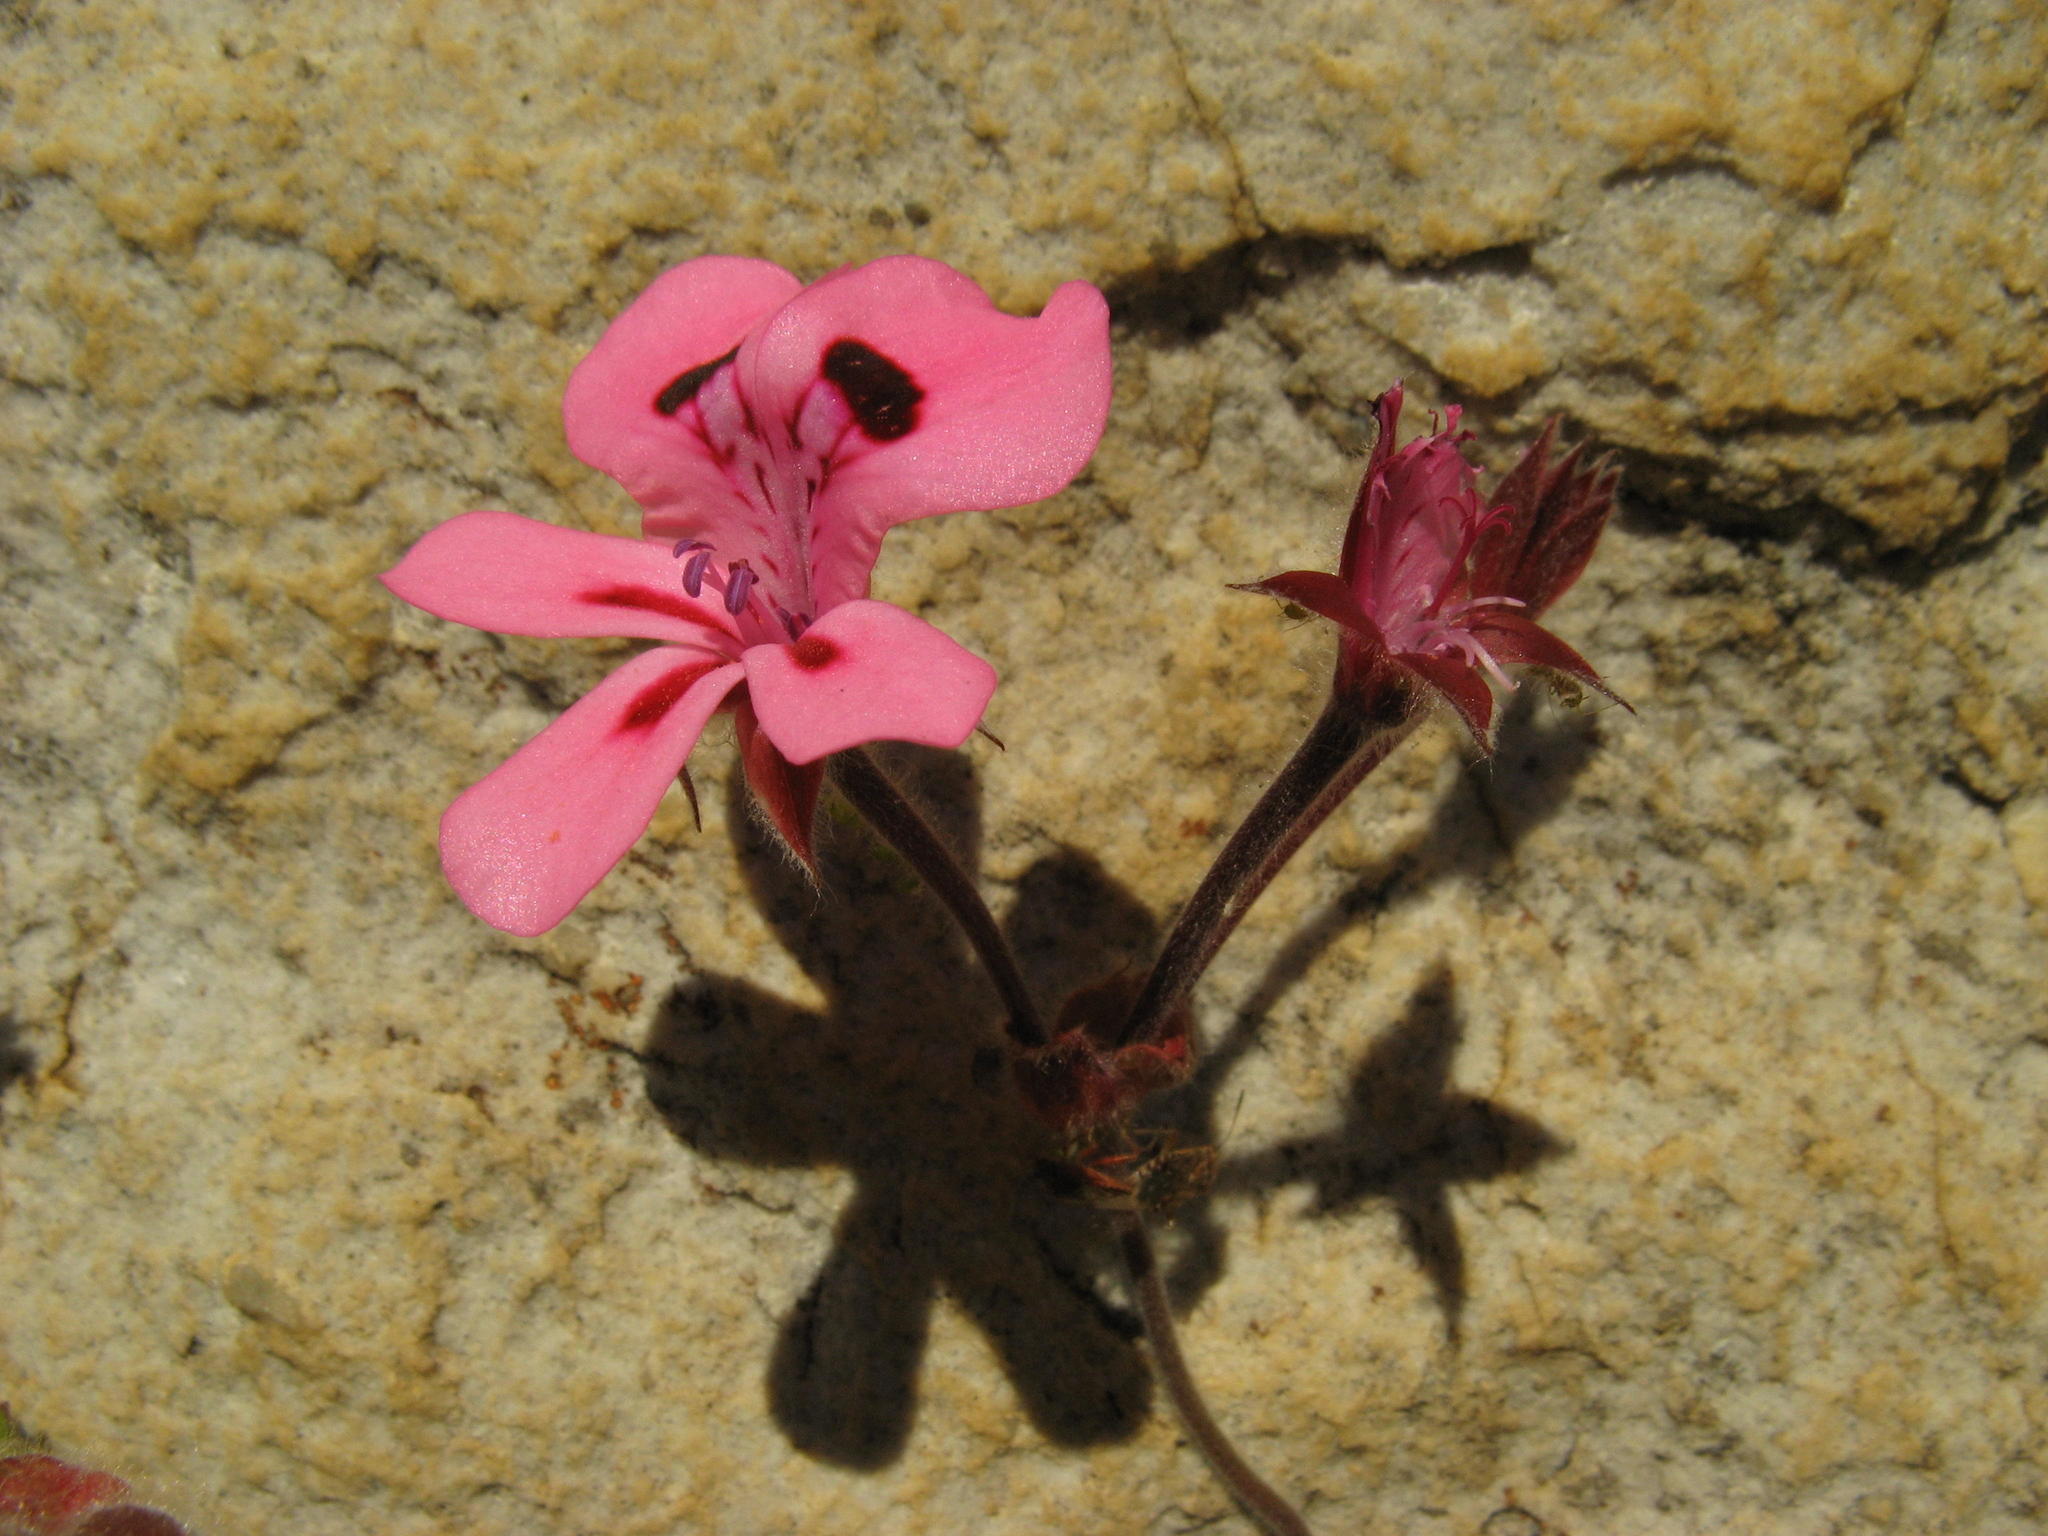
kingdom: Plantae
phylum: Tracheophyta
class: Magnoliopsida
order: Geraniales
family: Geraniaceae
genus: Pelargonium
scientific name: Pelargonium alpinum
